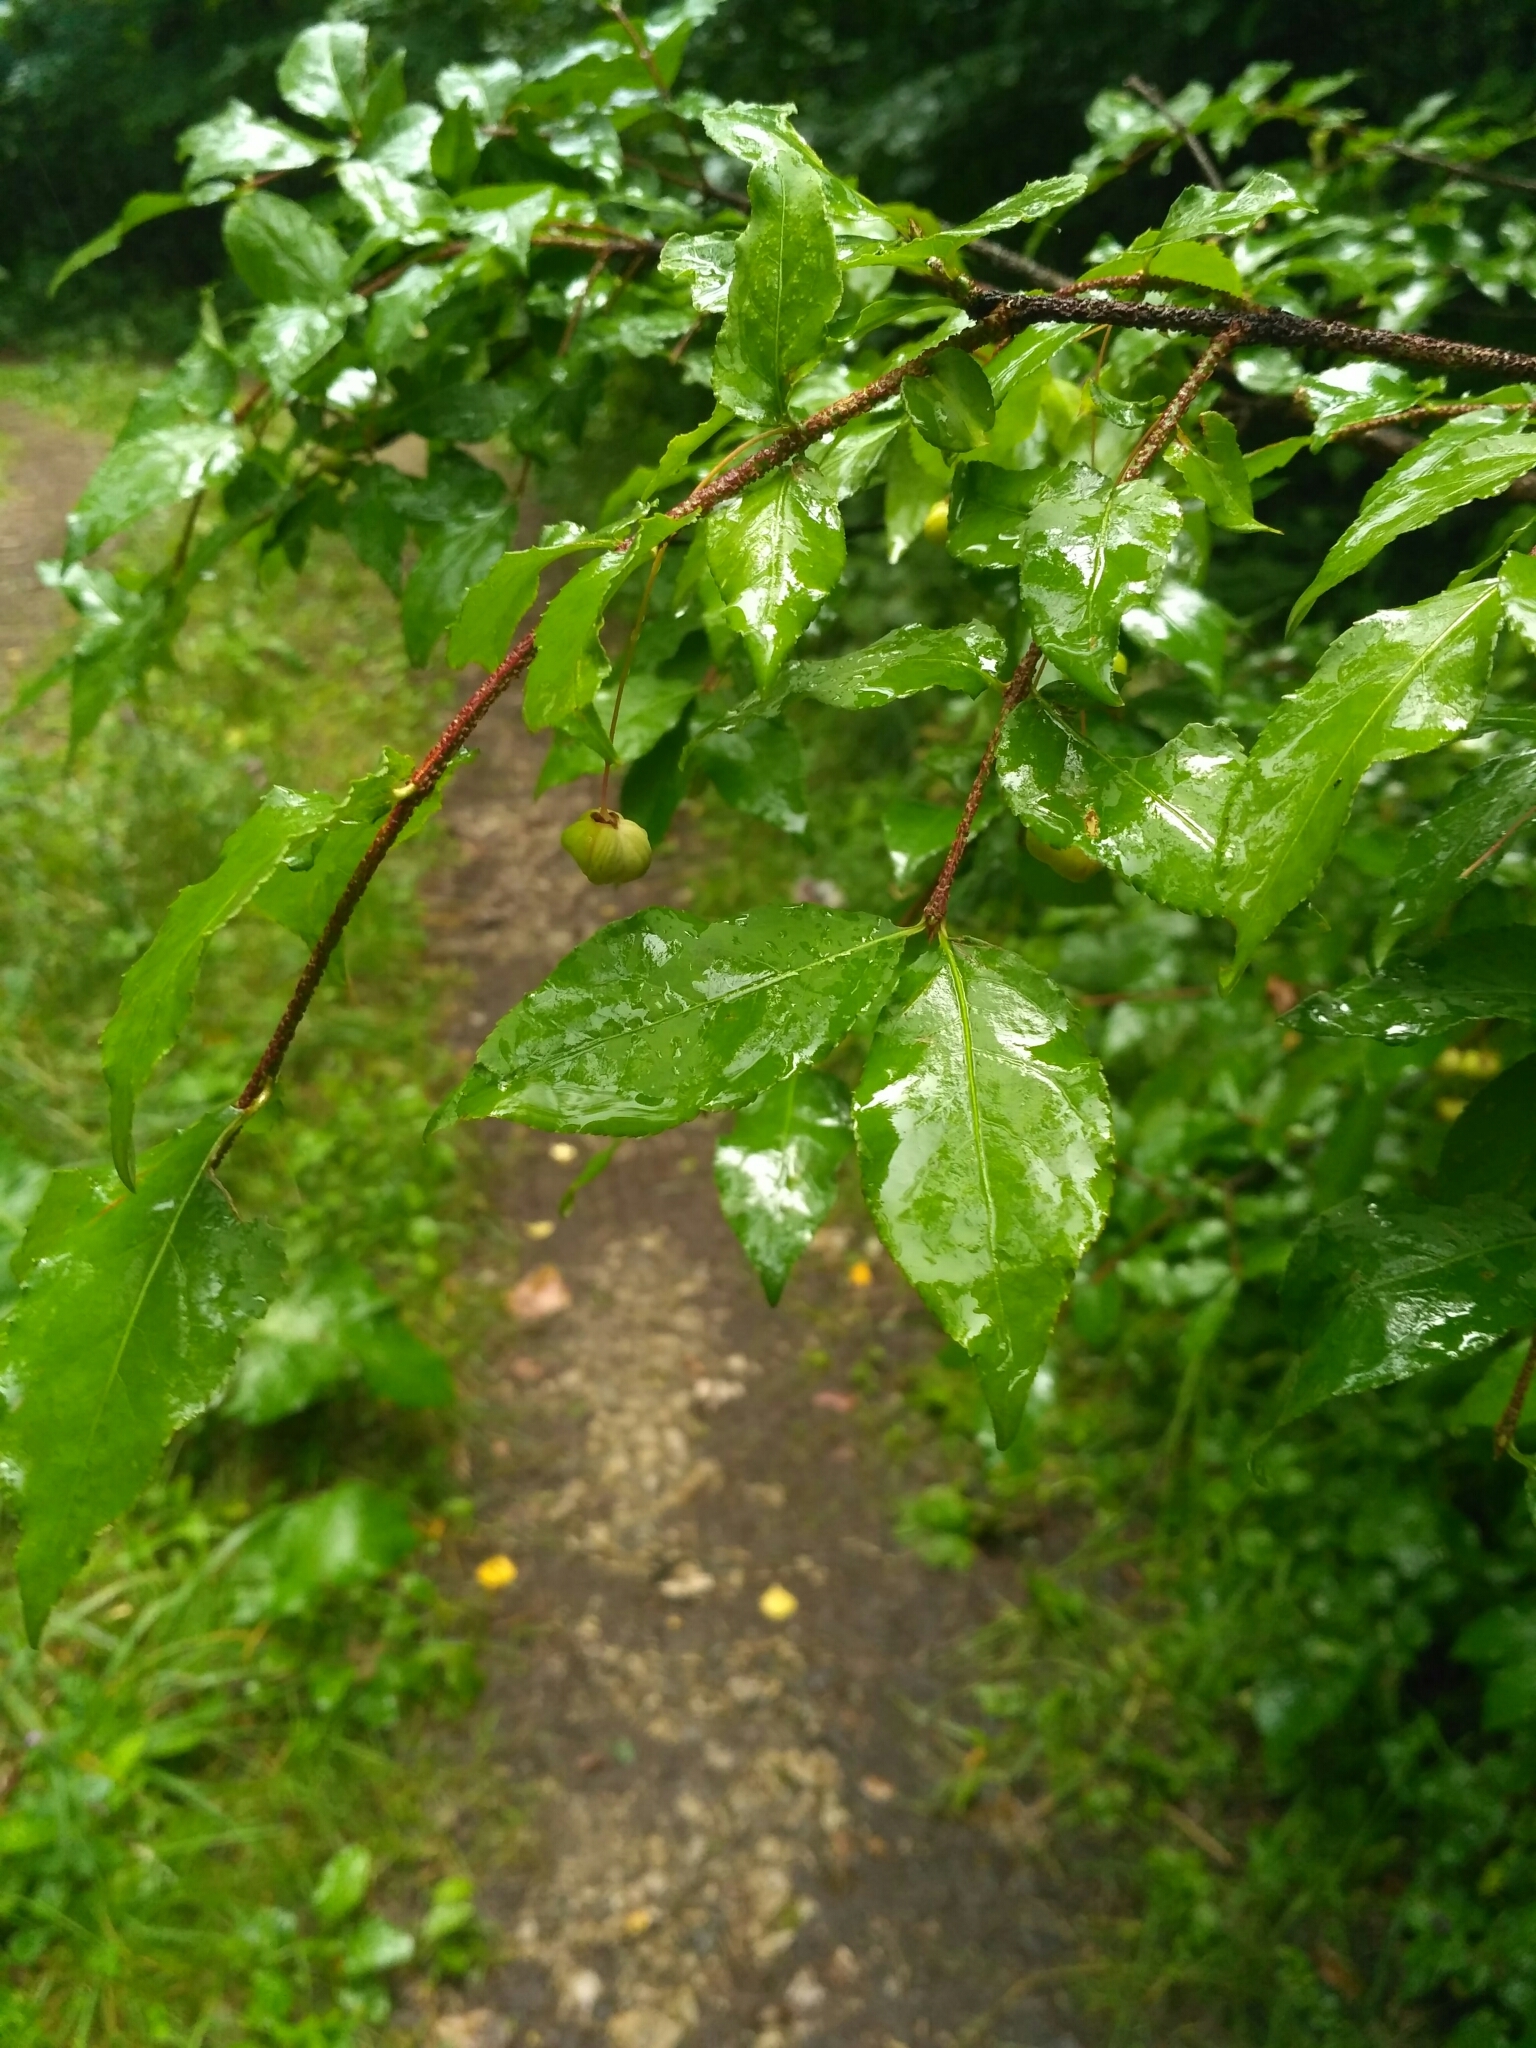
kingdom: Plantae
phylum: Tracheophyta
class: Magnoliopsida
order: Celastrales
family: Celastraceae
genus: Euonymus
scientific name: Euonymus verrucosus
